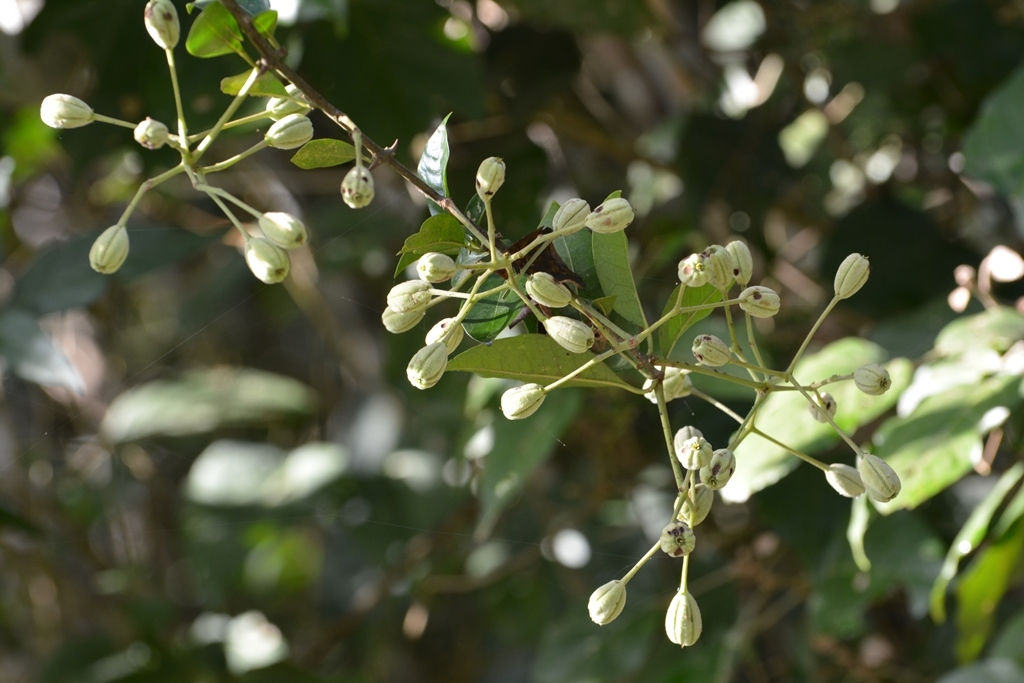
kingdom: Plantae
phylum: Tracheophyta
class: Magnoliopsida
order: Caryophyllales
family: Nyctaginaceae
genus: Pisonia
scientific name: Pisonia macranthocarpa
